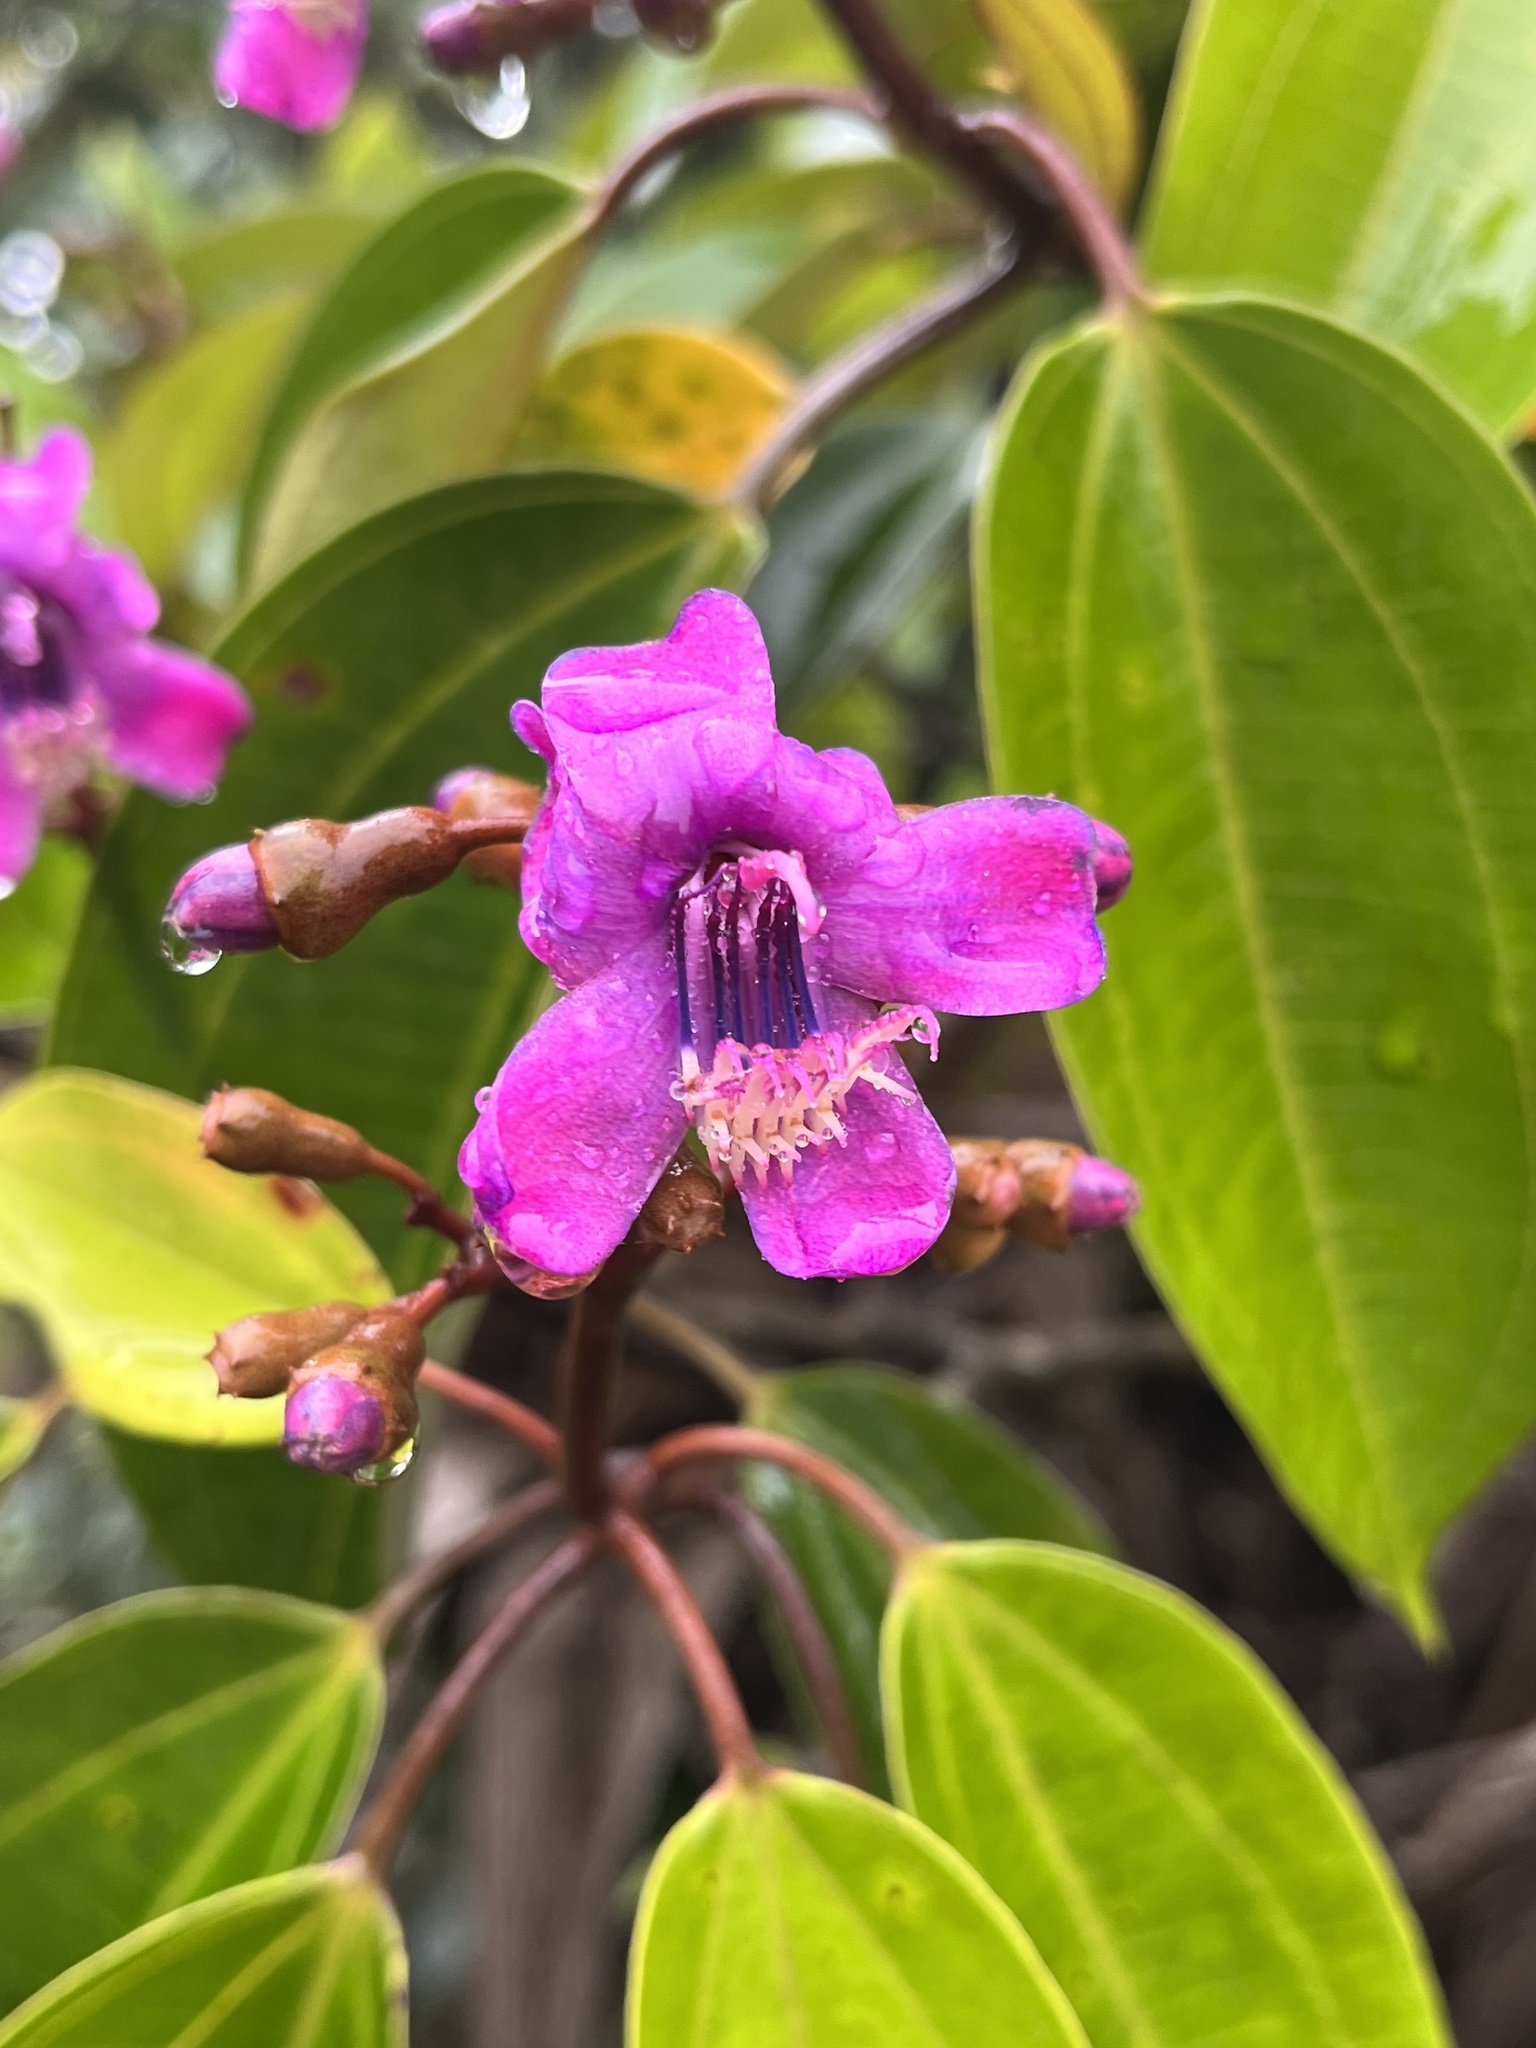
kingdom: Plantae
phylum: Tracheophyta
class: Magnoliopsida
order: Myrtales
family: Melastomataceae
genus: Meriania
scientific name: Meriania urceolata
